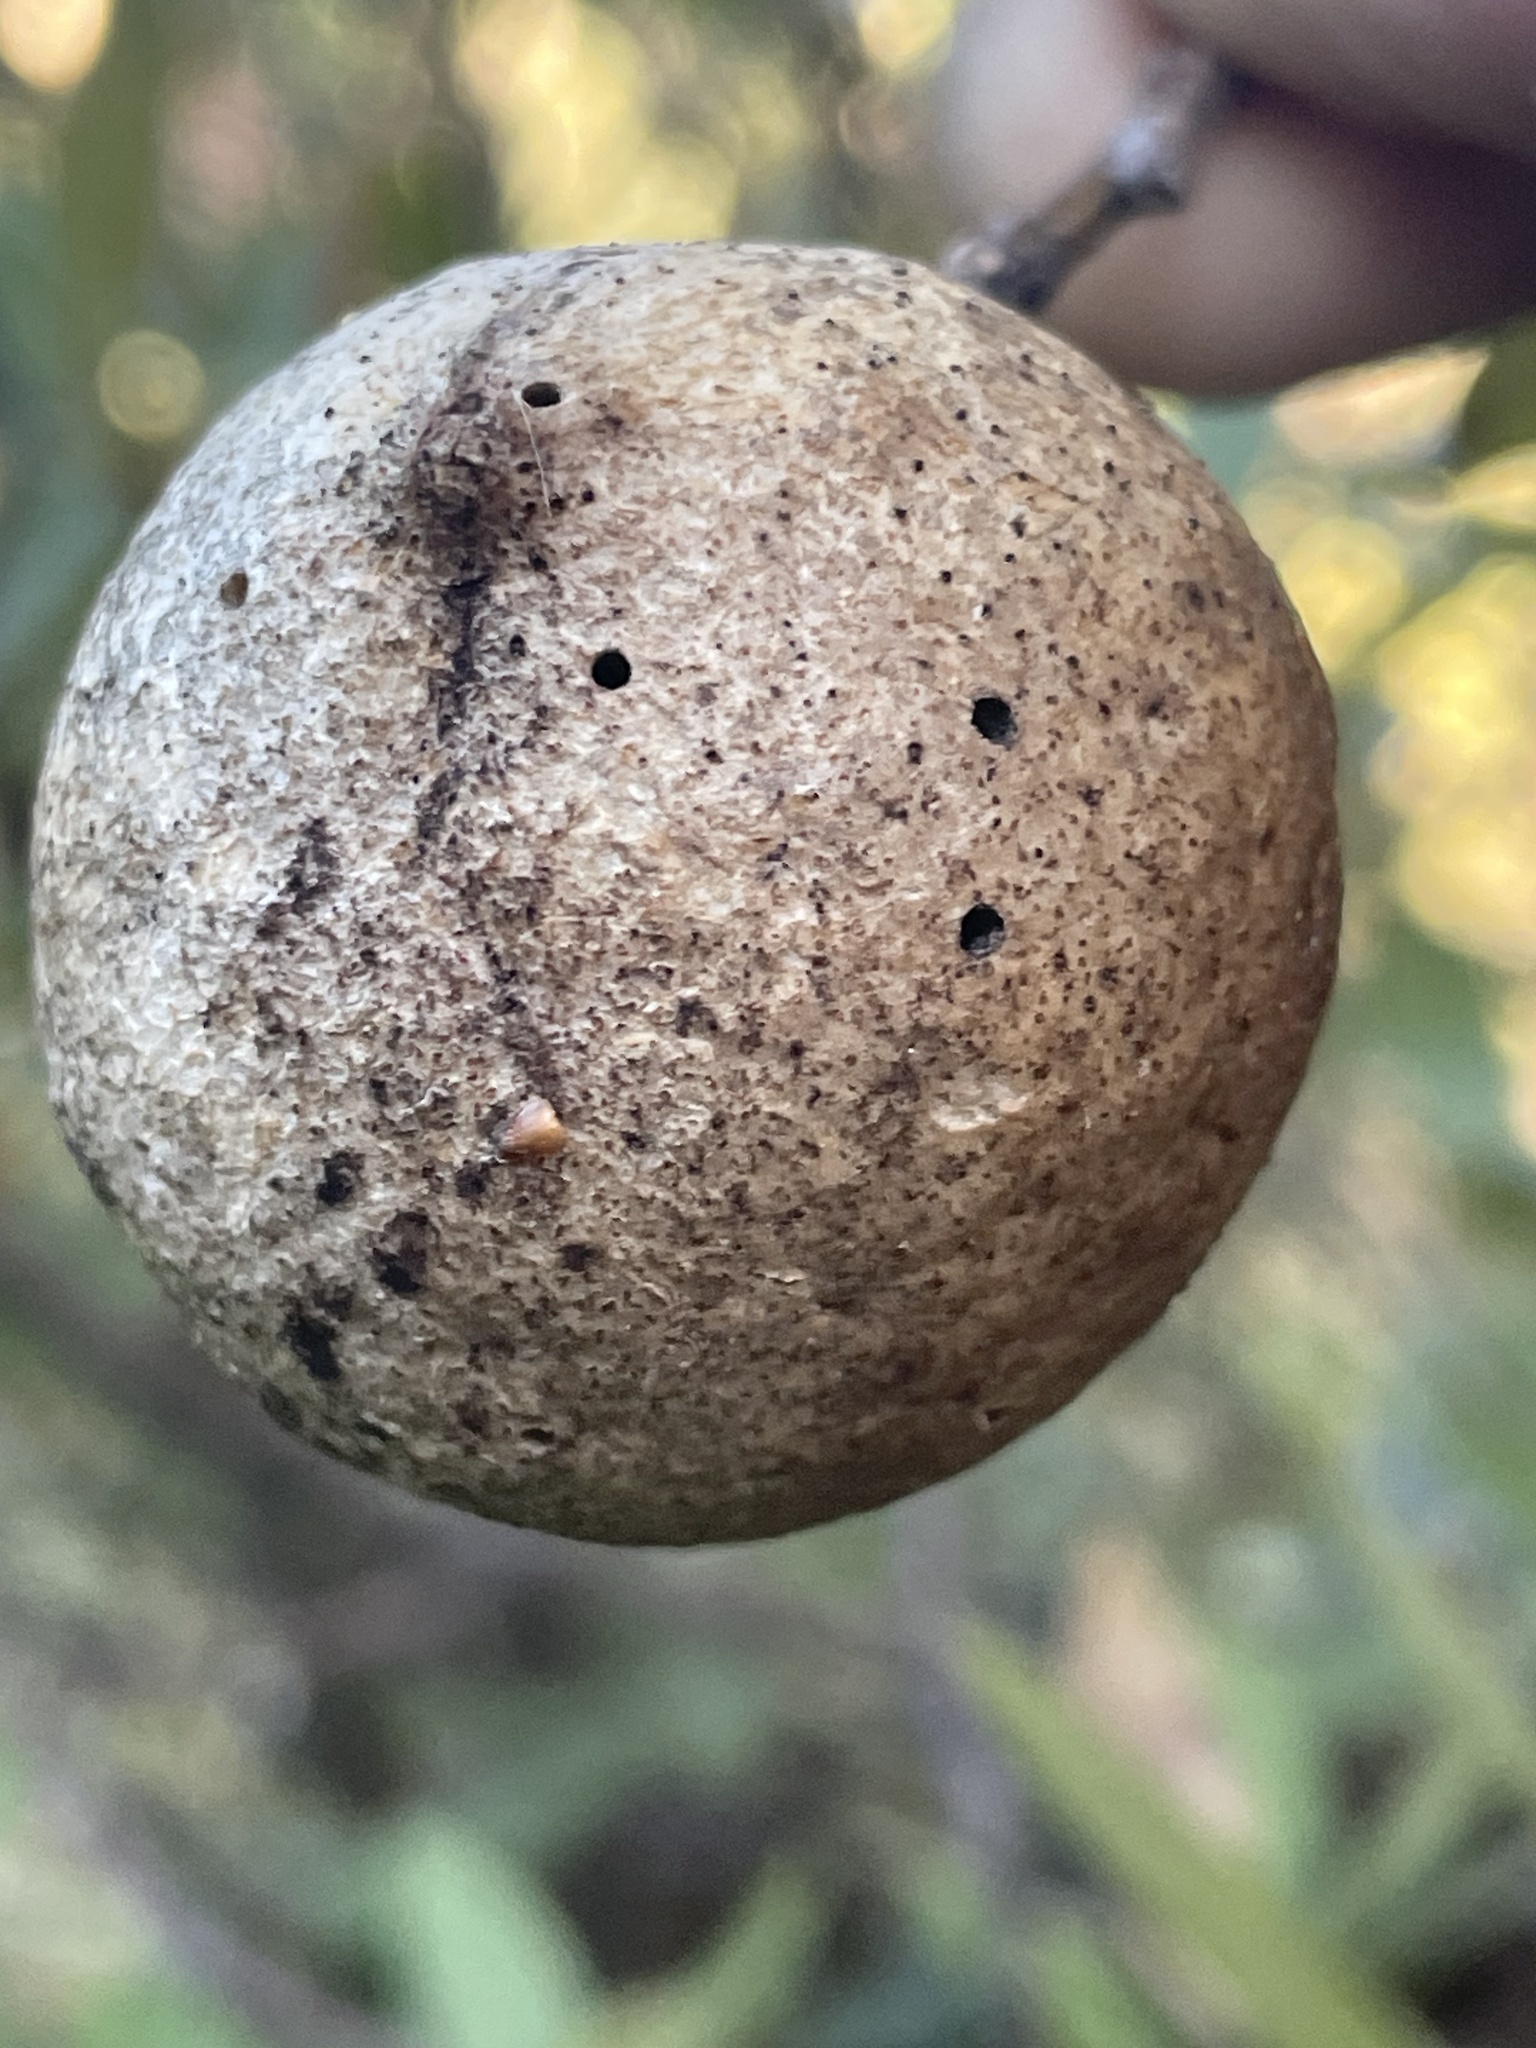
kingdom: Animalia
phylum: Arthropoda
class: Insecta
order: Hymenoptera
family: Cynipidae
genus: Amphibolips
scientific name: Amphibolips
